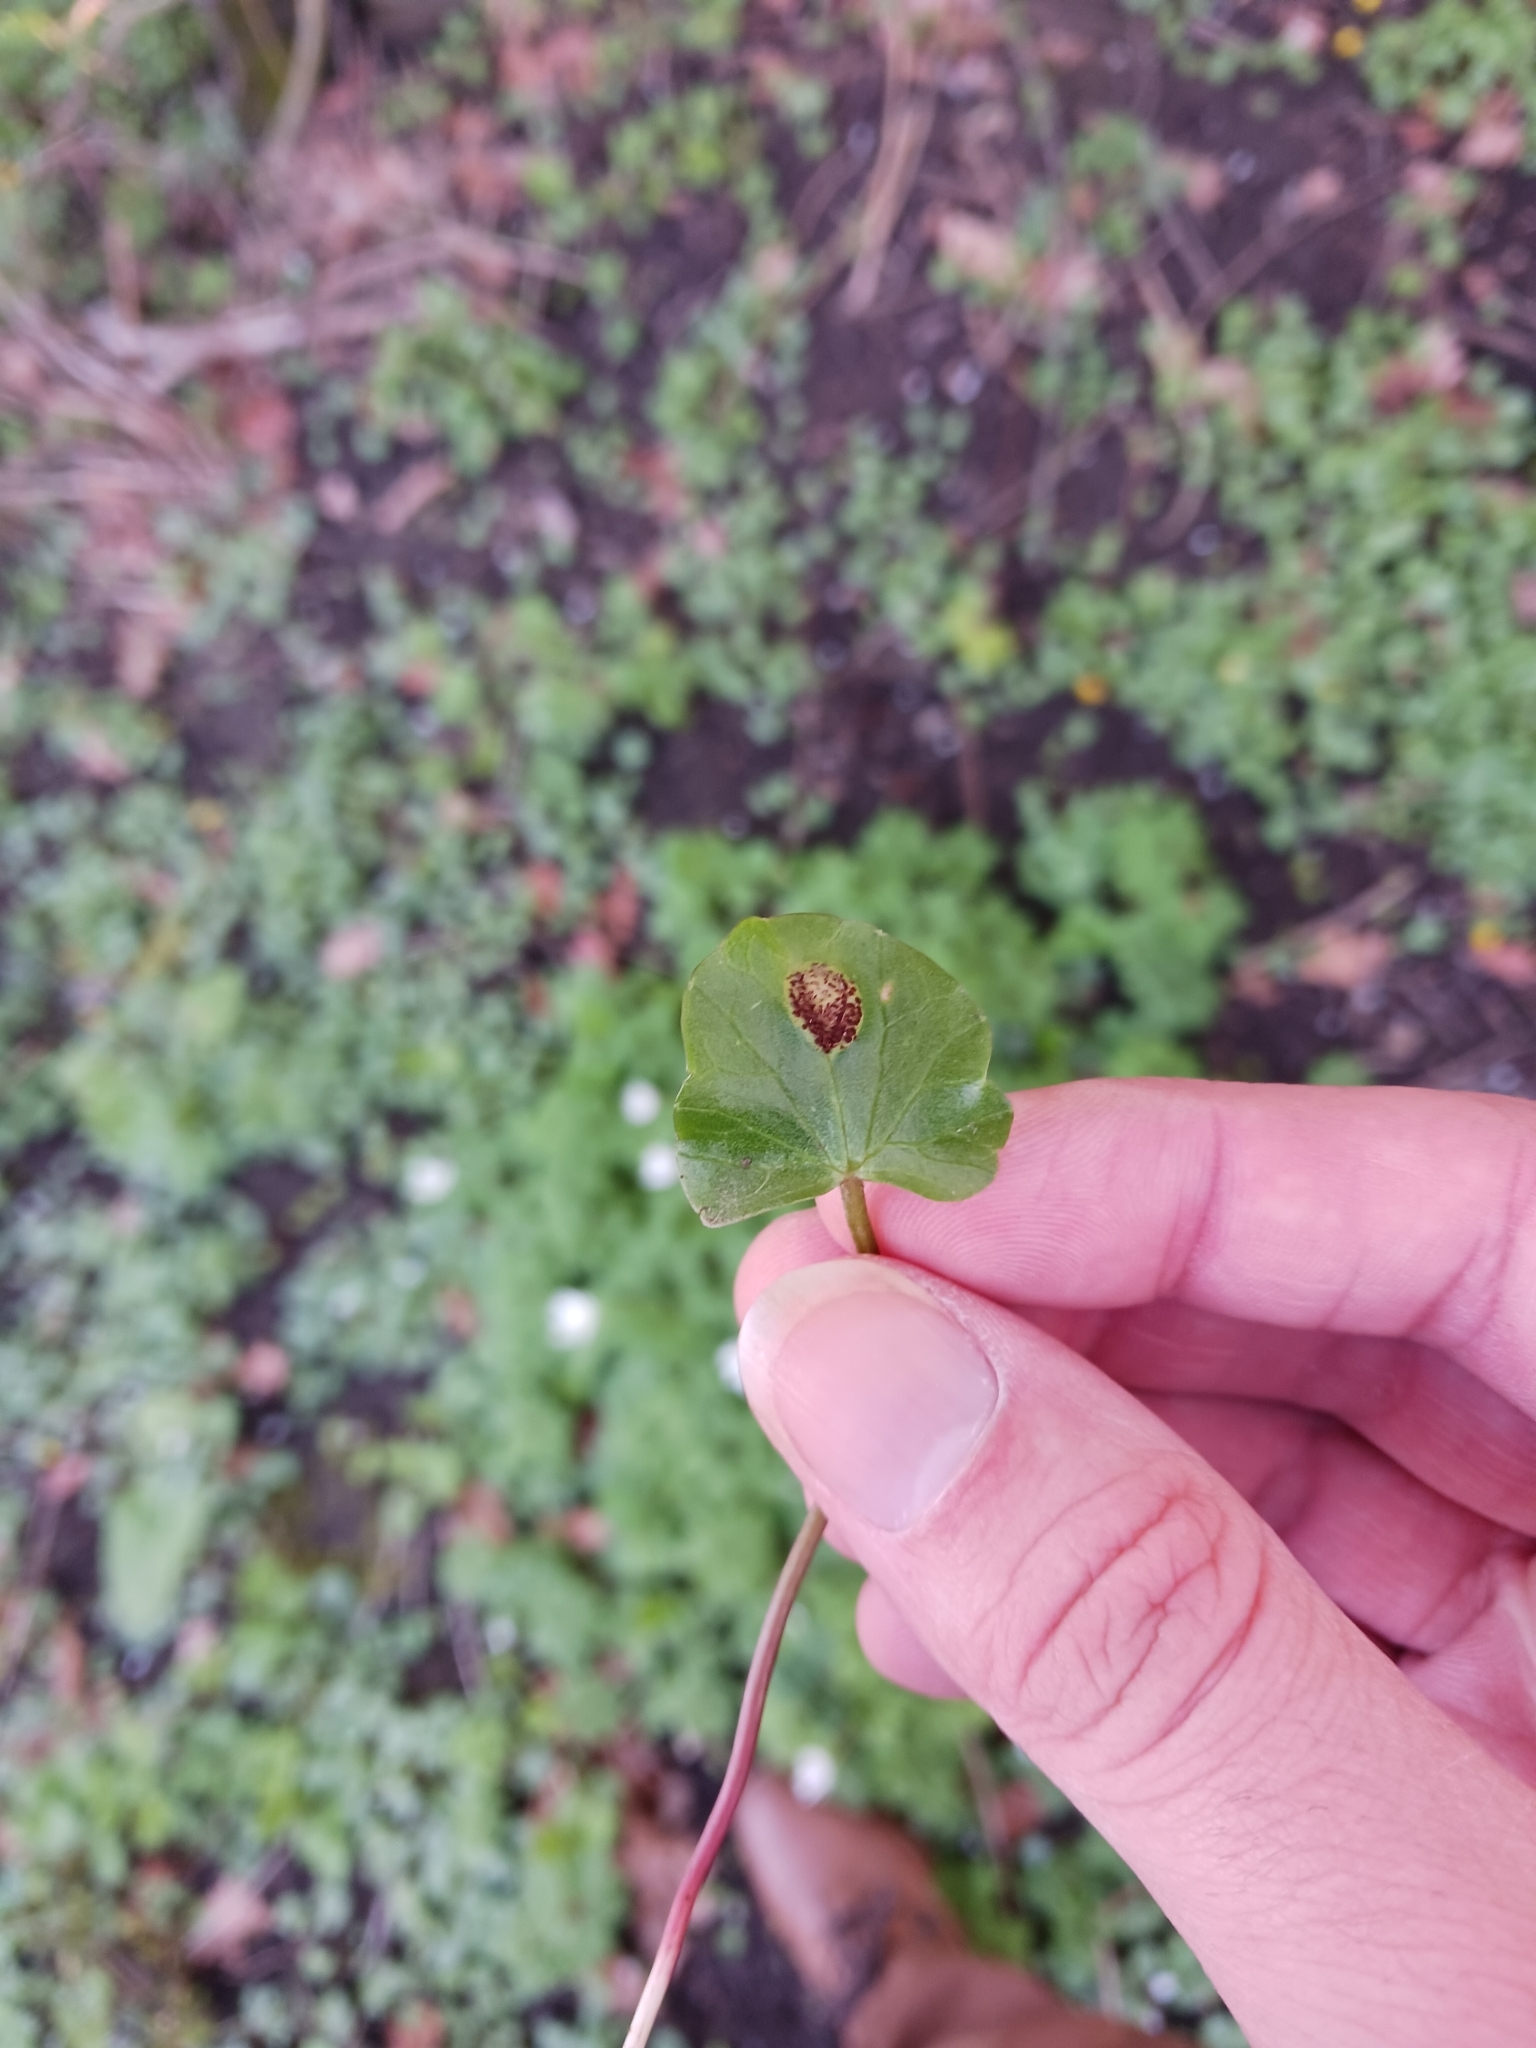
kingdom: Fungi
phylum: Basidiomycota
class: Pucciniomycetes
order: Pucciniales
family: Pucciniaceae
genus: Uromyces
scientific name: Uromyces ficariae
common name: Bitter chocolate rust
